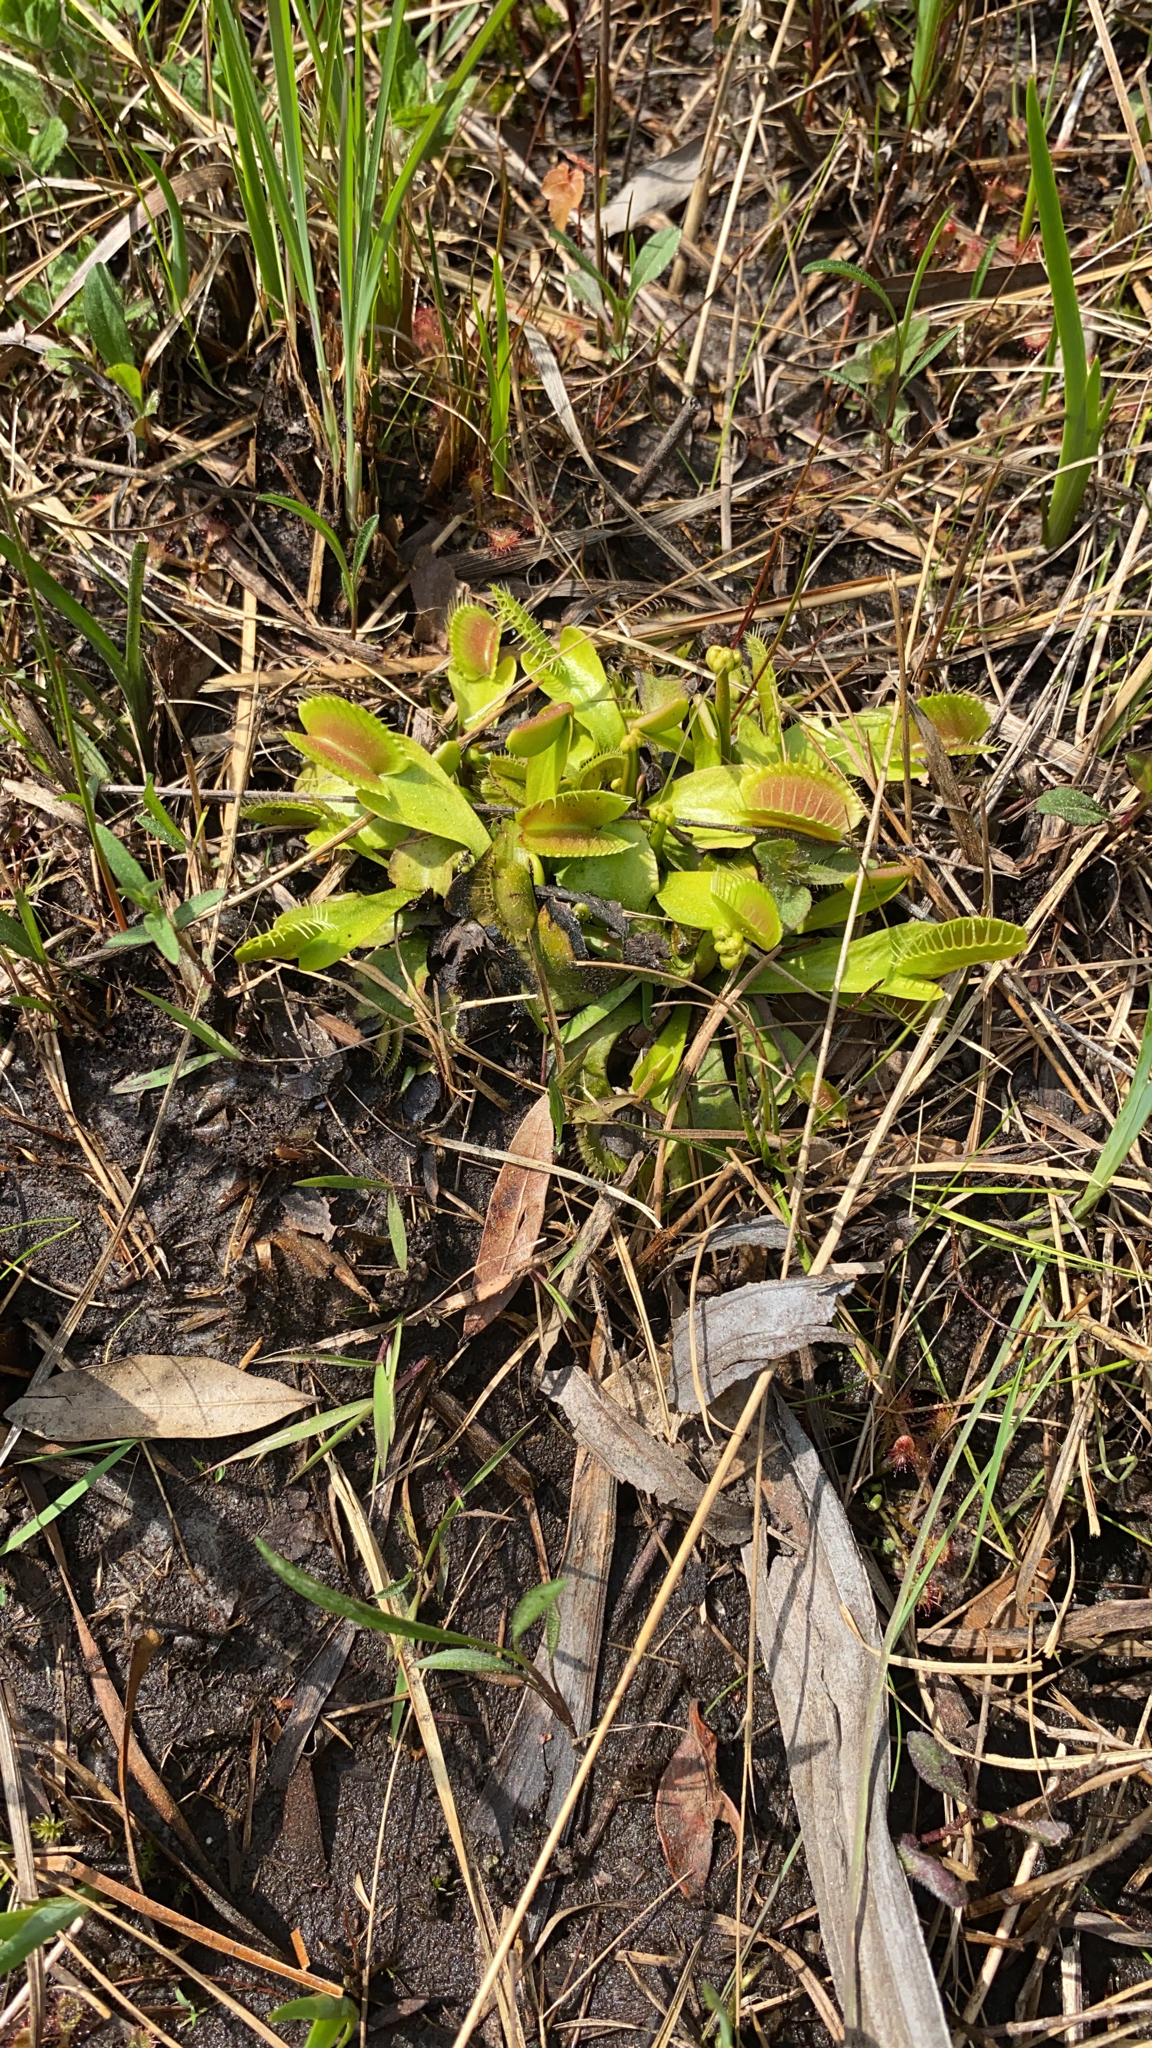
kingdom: Plantae
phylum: Tracheophyta
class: Magnoliopsida
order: Caryophyllales
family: Droseraceae
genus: Dionaea
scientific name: Dionaea muscipula
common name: Venus flytrap
